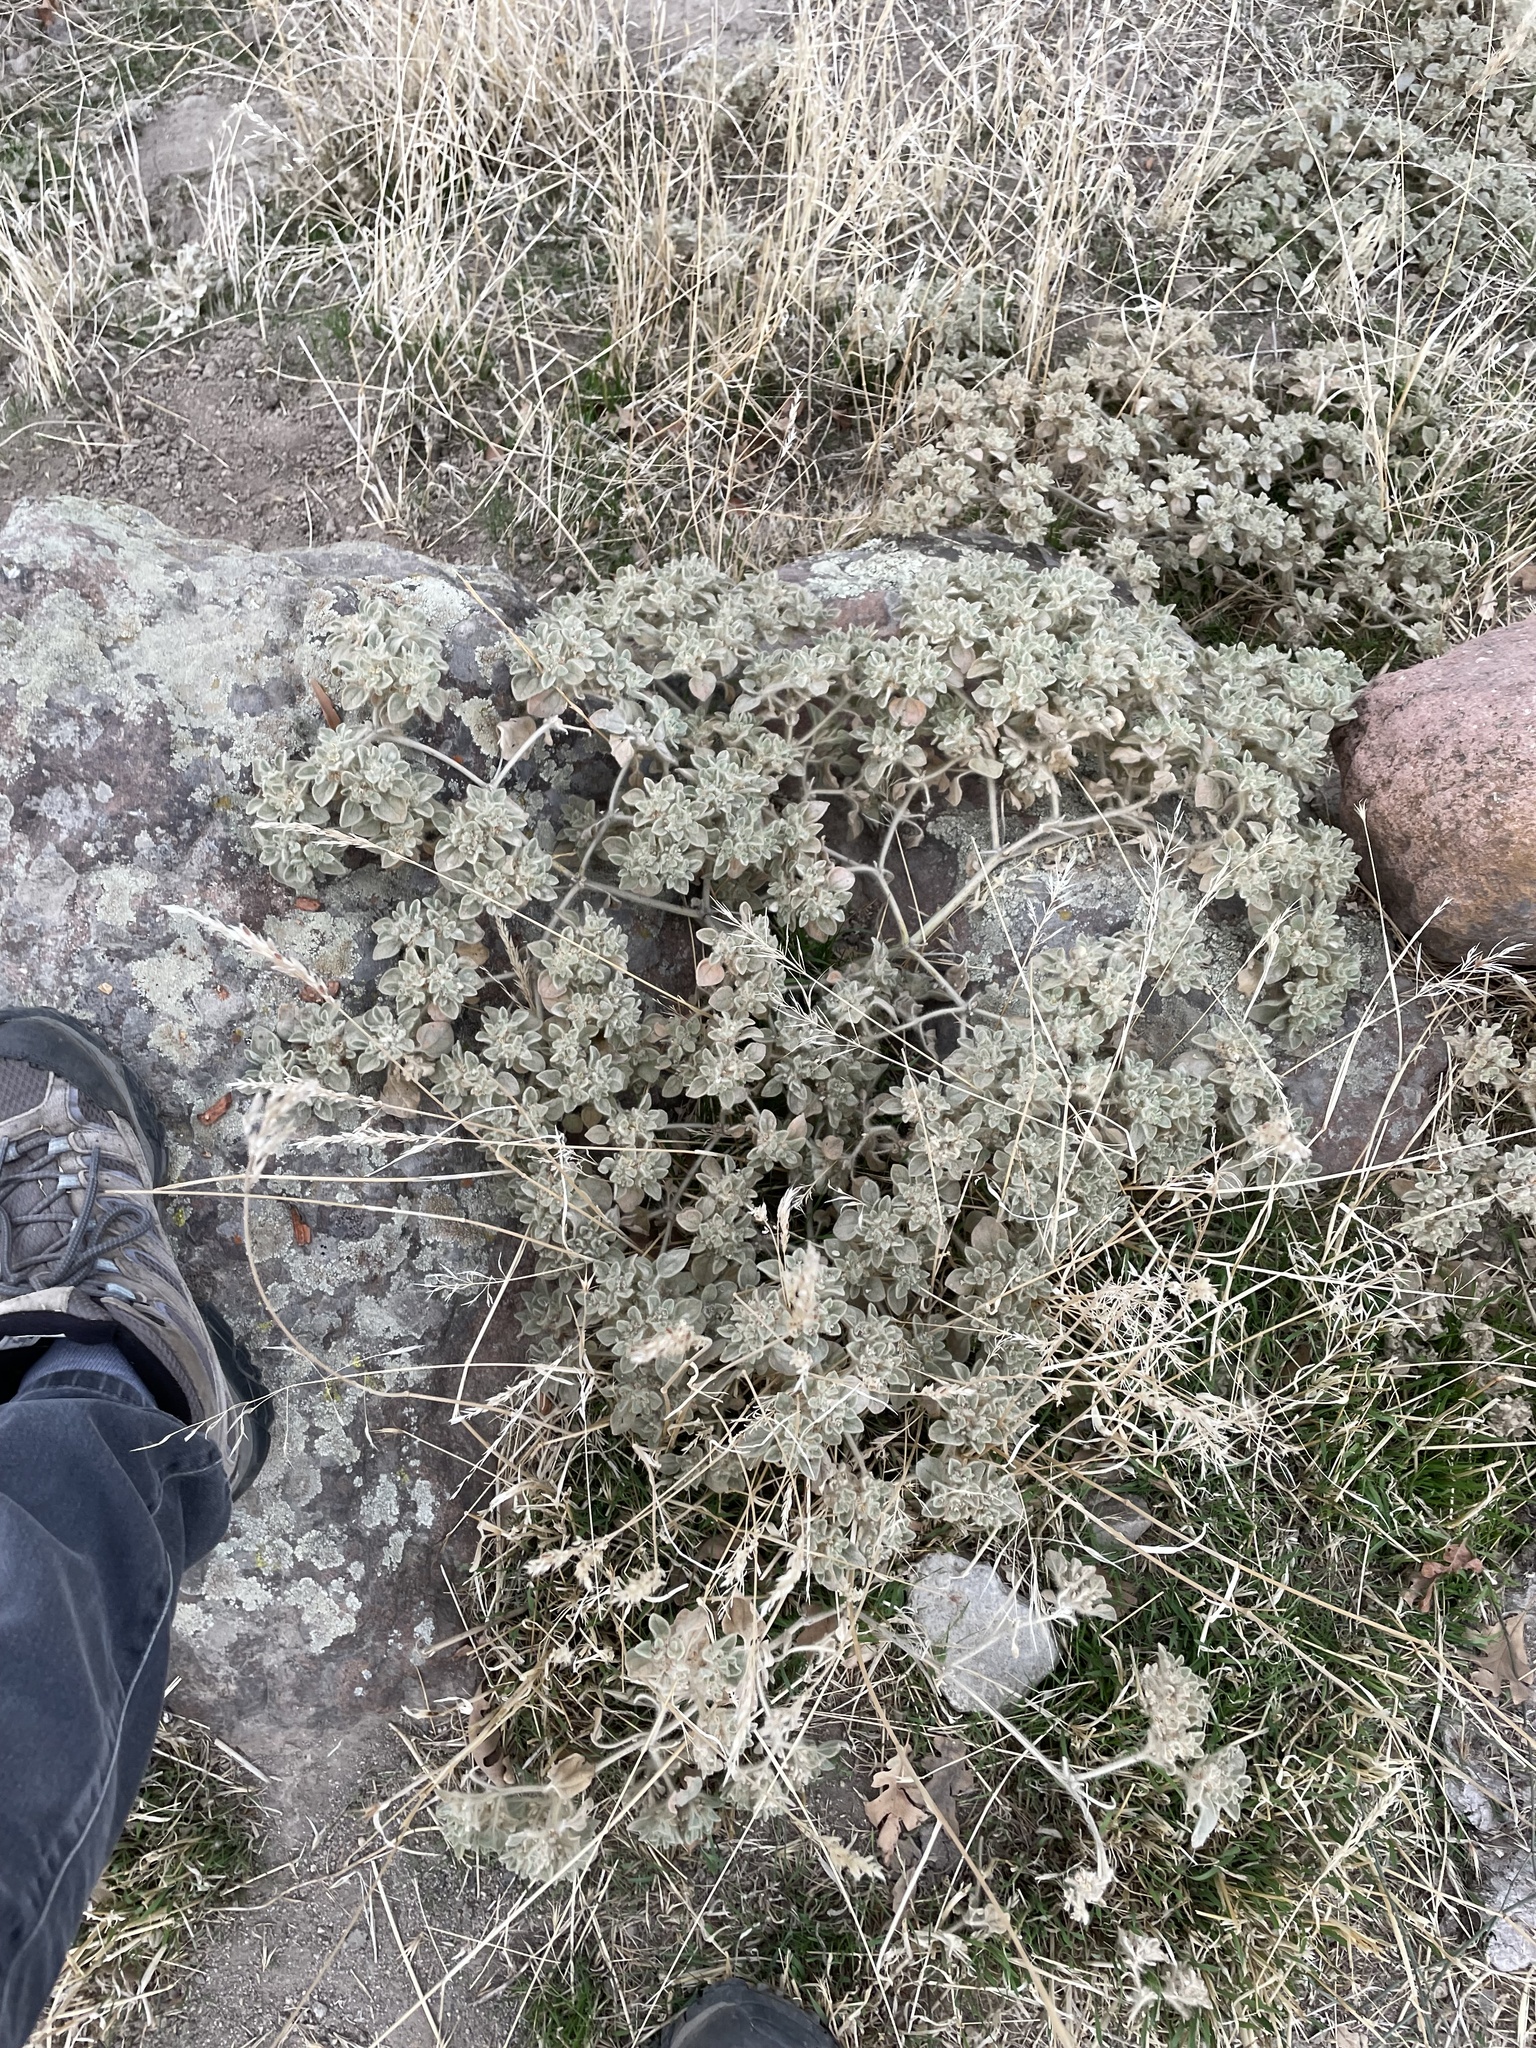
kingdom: Plantae
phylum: Tracheophyta
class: Magnoliopsida
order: Malpighiales
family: Euphorbiaceae
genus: Croton
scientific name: Croton setiger
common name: Dove weed
